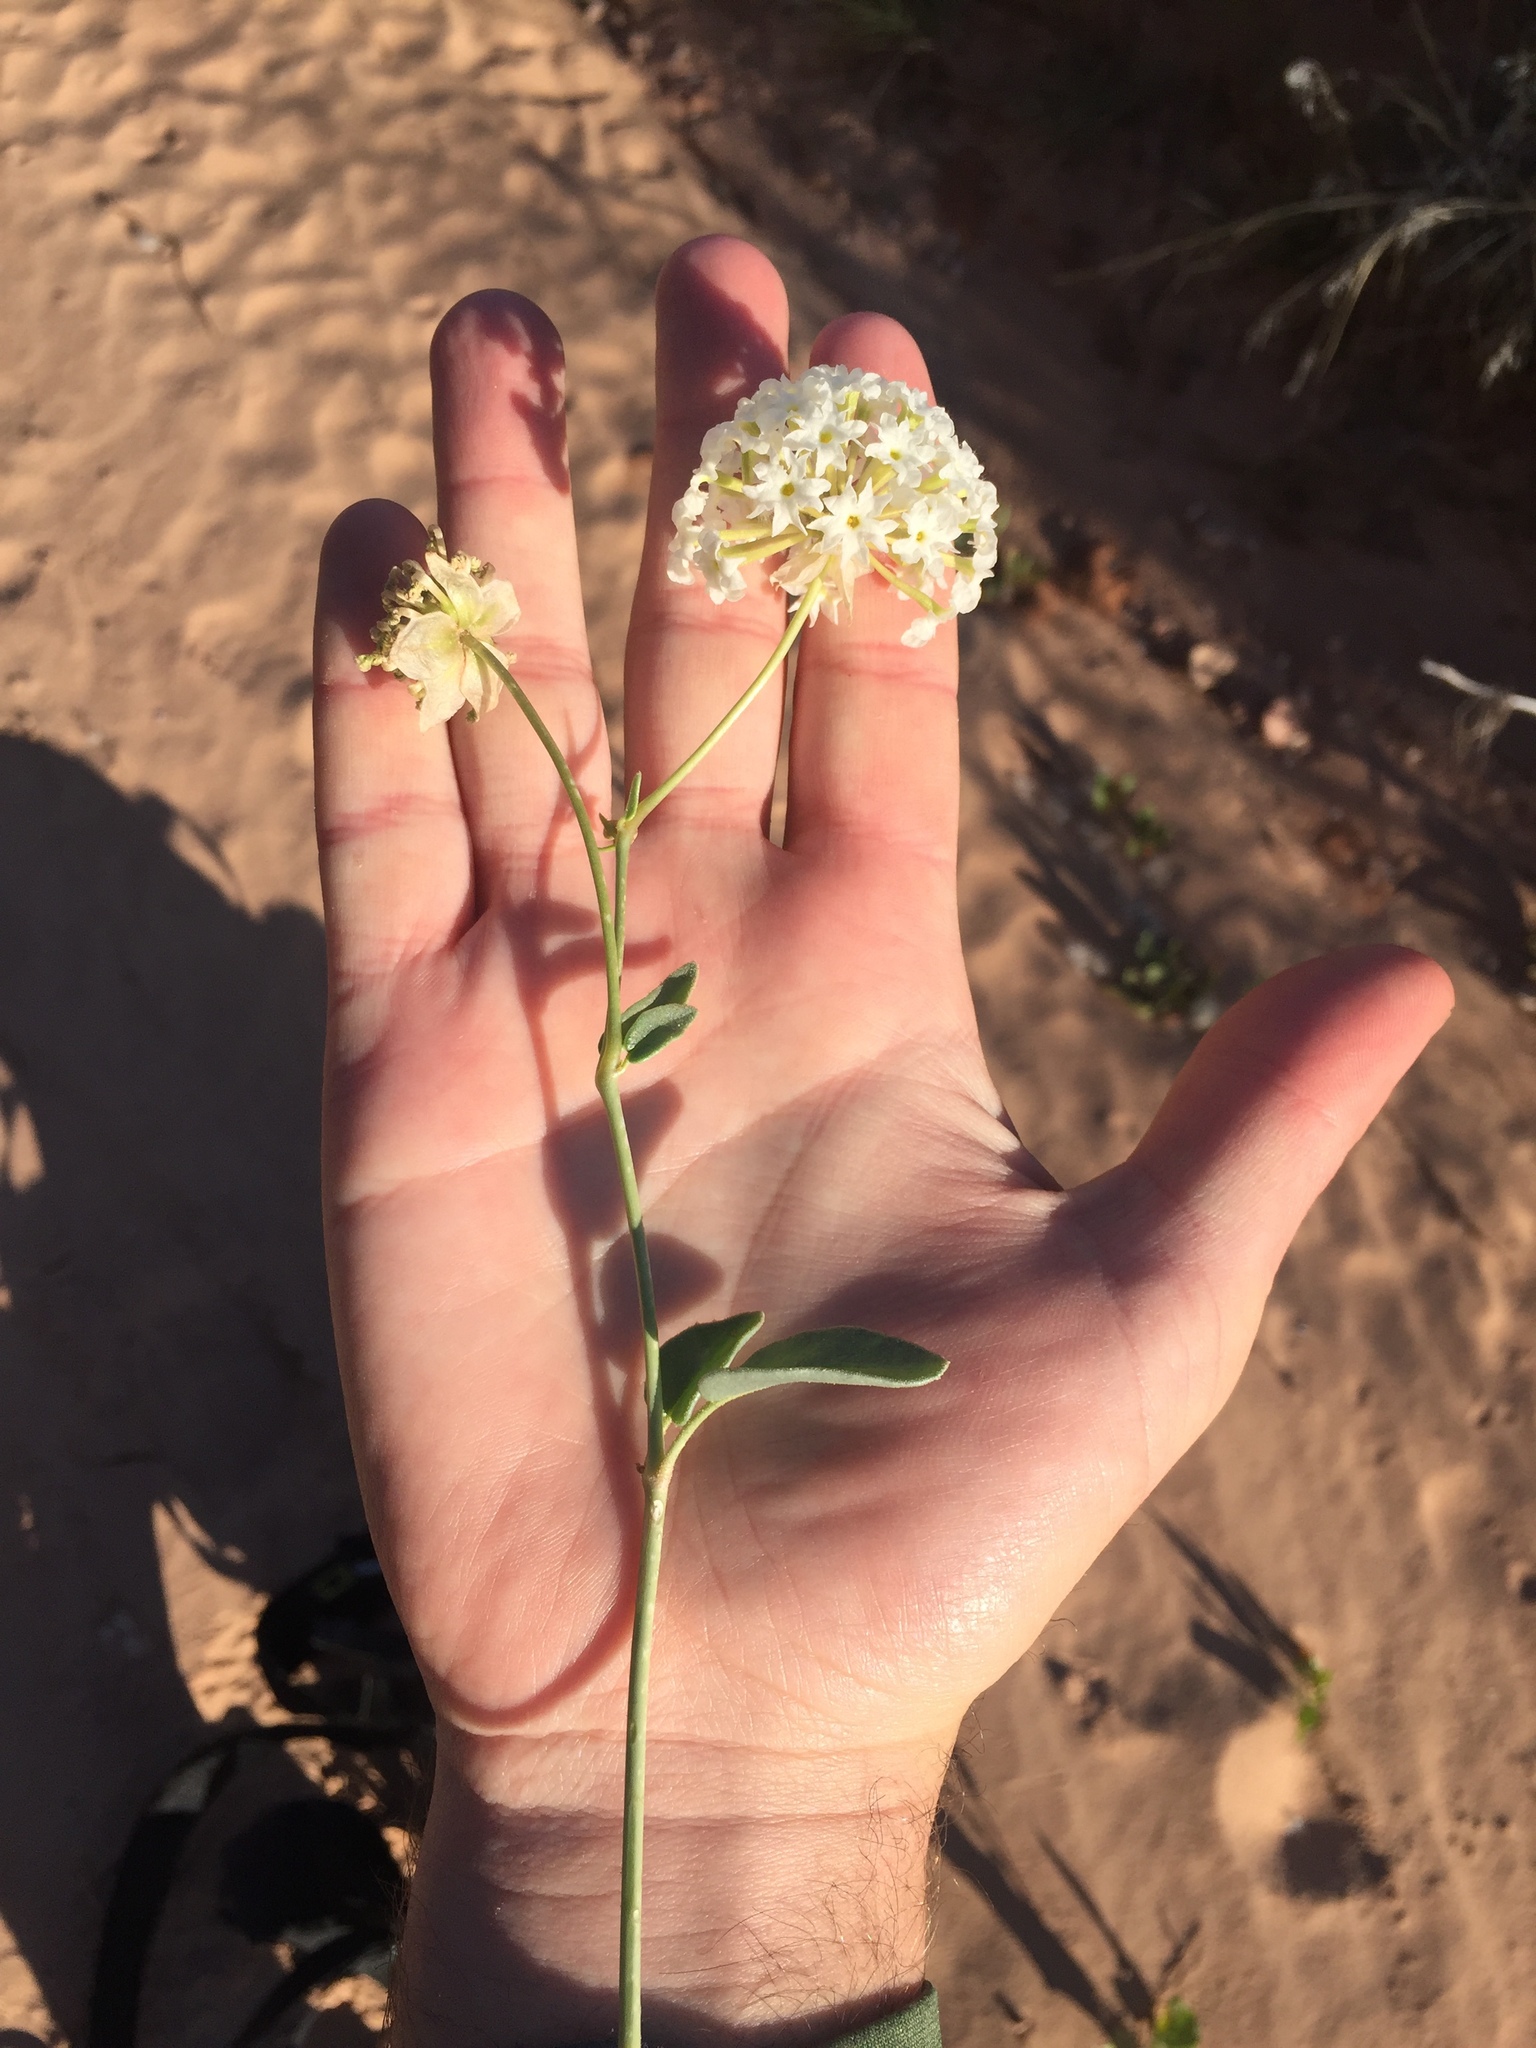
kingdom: Plantae
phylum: Tracheophyta
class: Magnoliopsida
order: Caryophyllales
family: Nyctaginaceae
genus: Abronia
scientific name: Abronia elliptica
